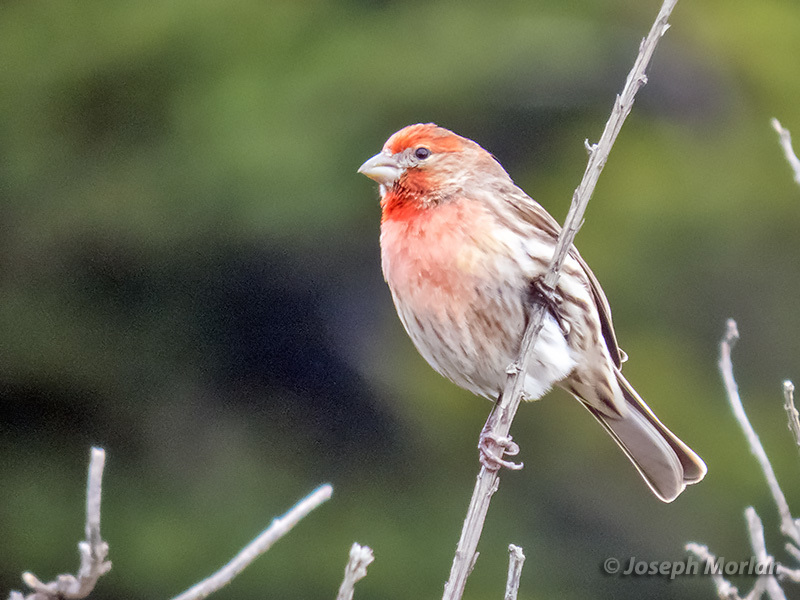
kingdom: Animalia
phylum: Chordata
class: Aves
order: Passeriformes
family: Fringillidae
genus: Haemorhous
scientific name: Haemorhous mexicanus
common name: House finch
